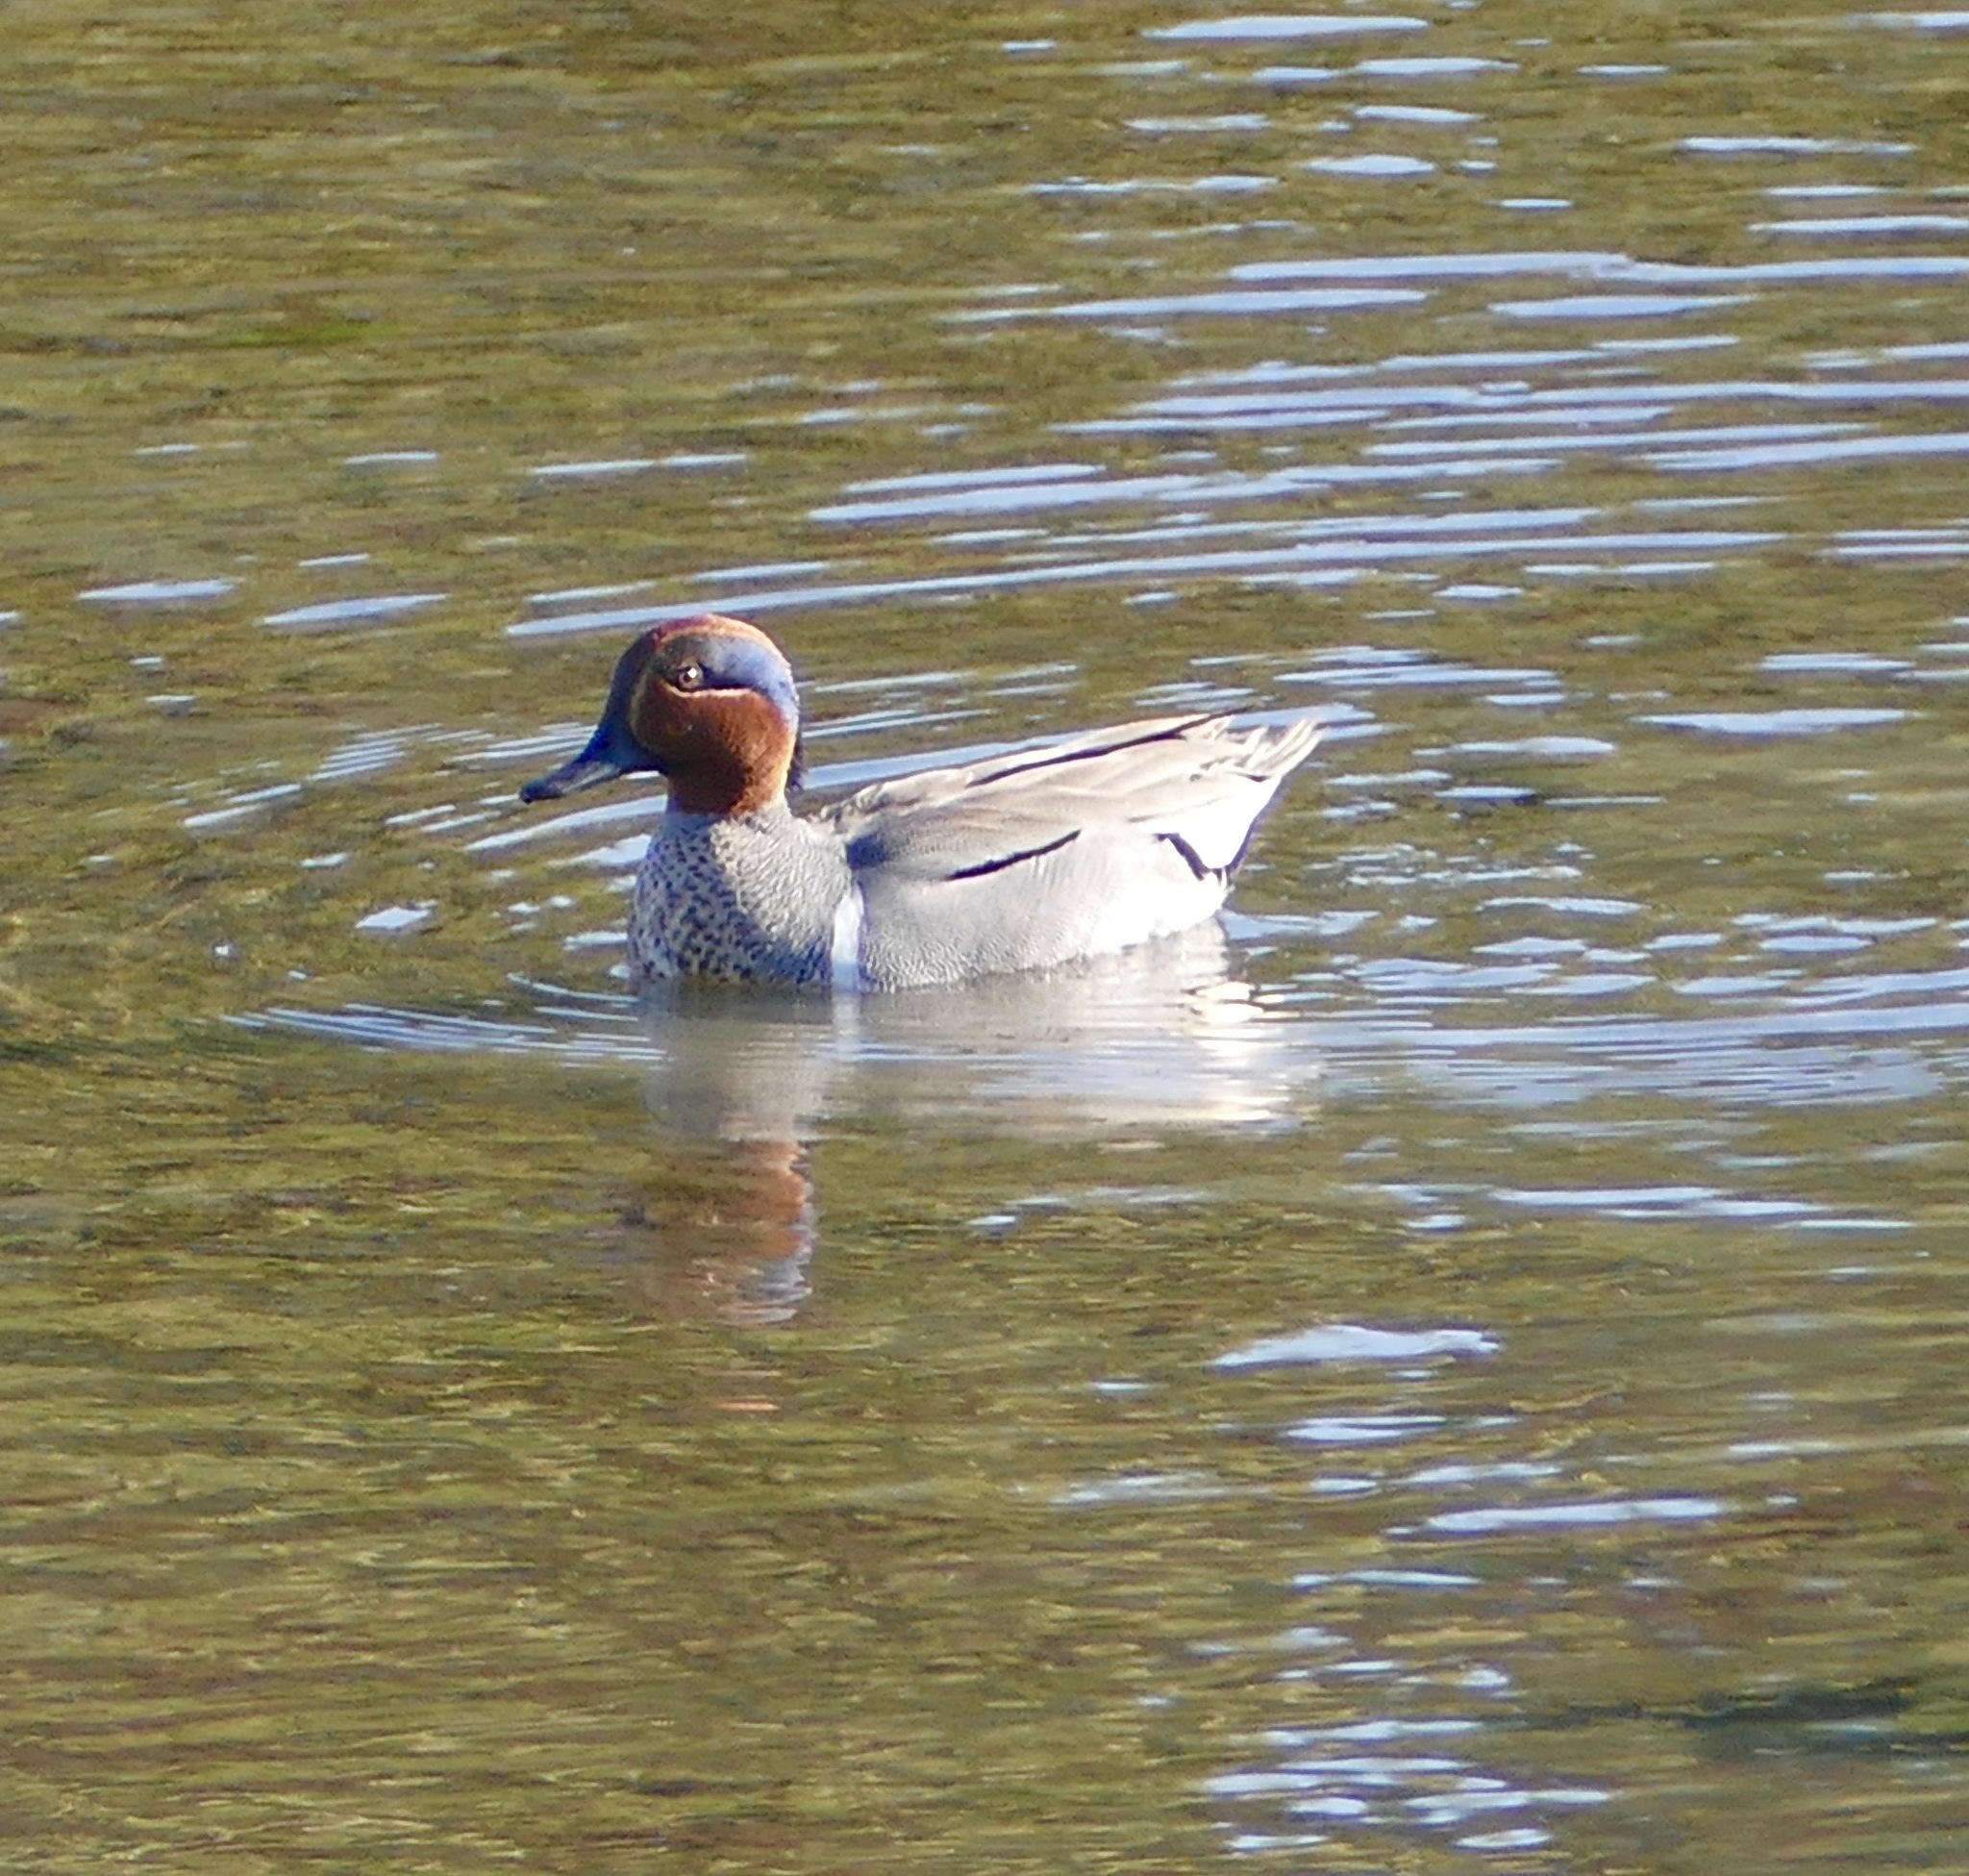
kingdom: Animalia
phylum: Chordata
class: Aves
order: Anseriformes
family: Anatidae
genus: Anas
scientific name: Anas crecca
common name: Eurasian teal
